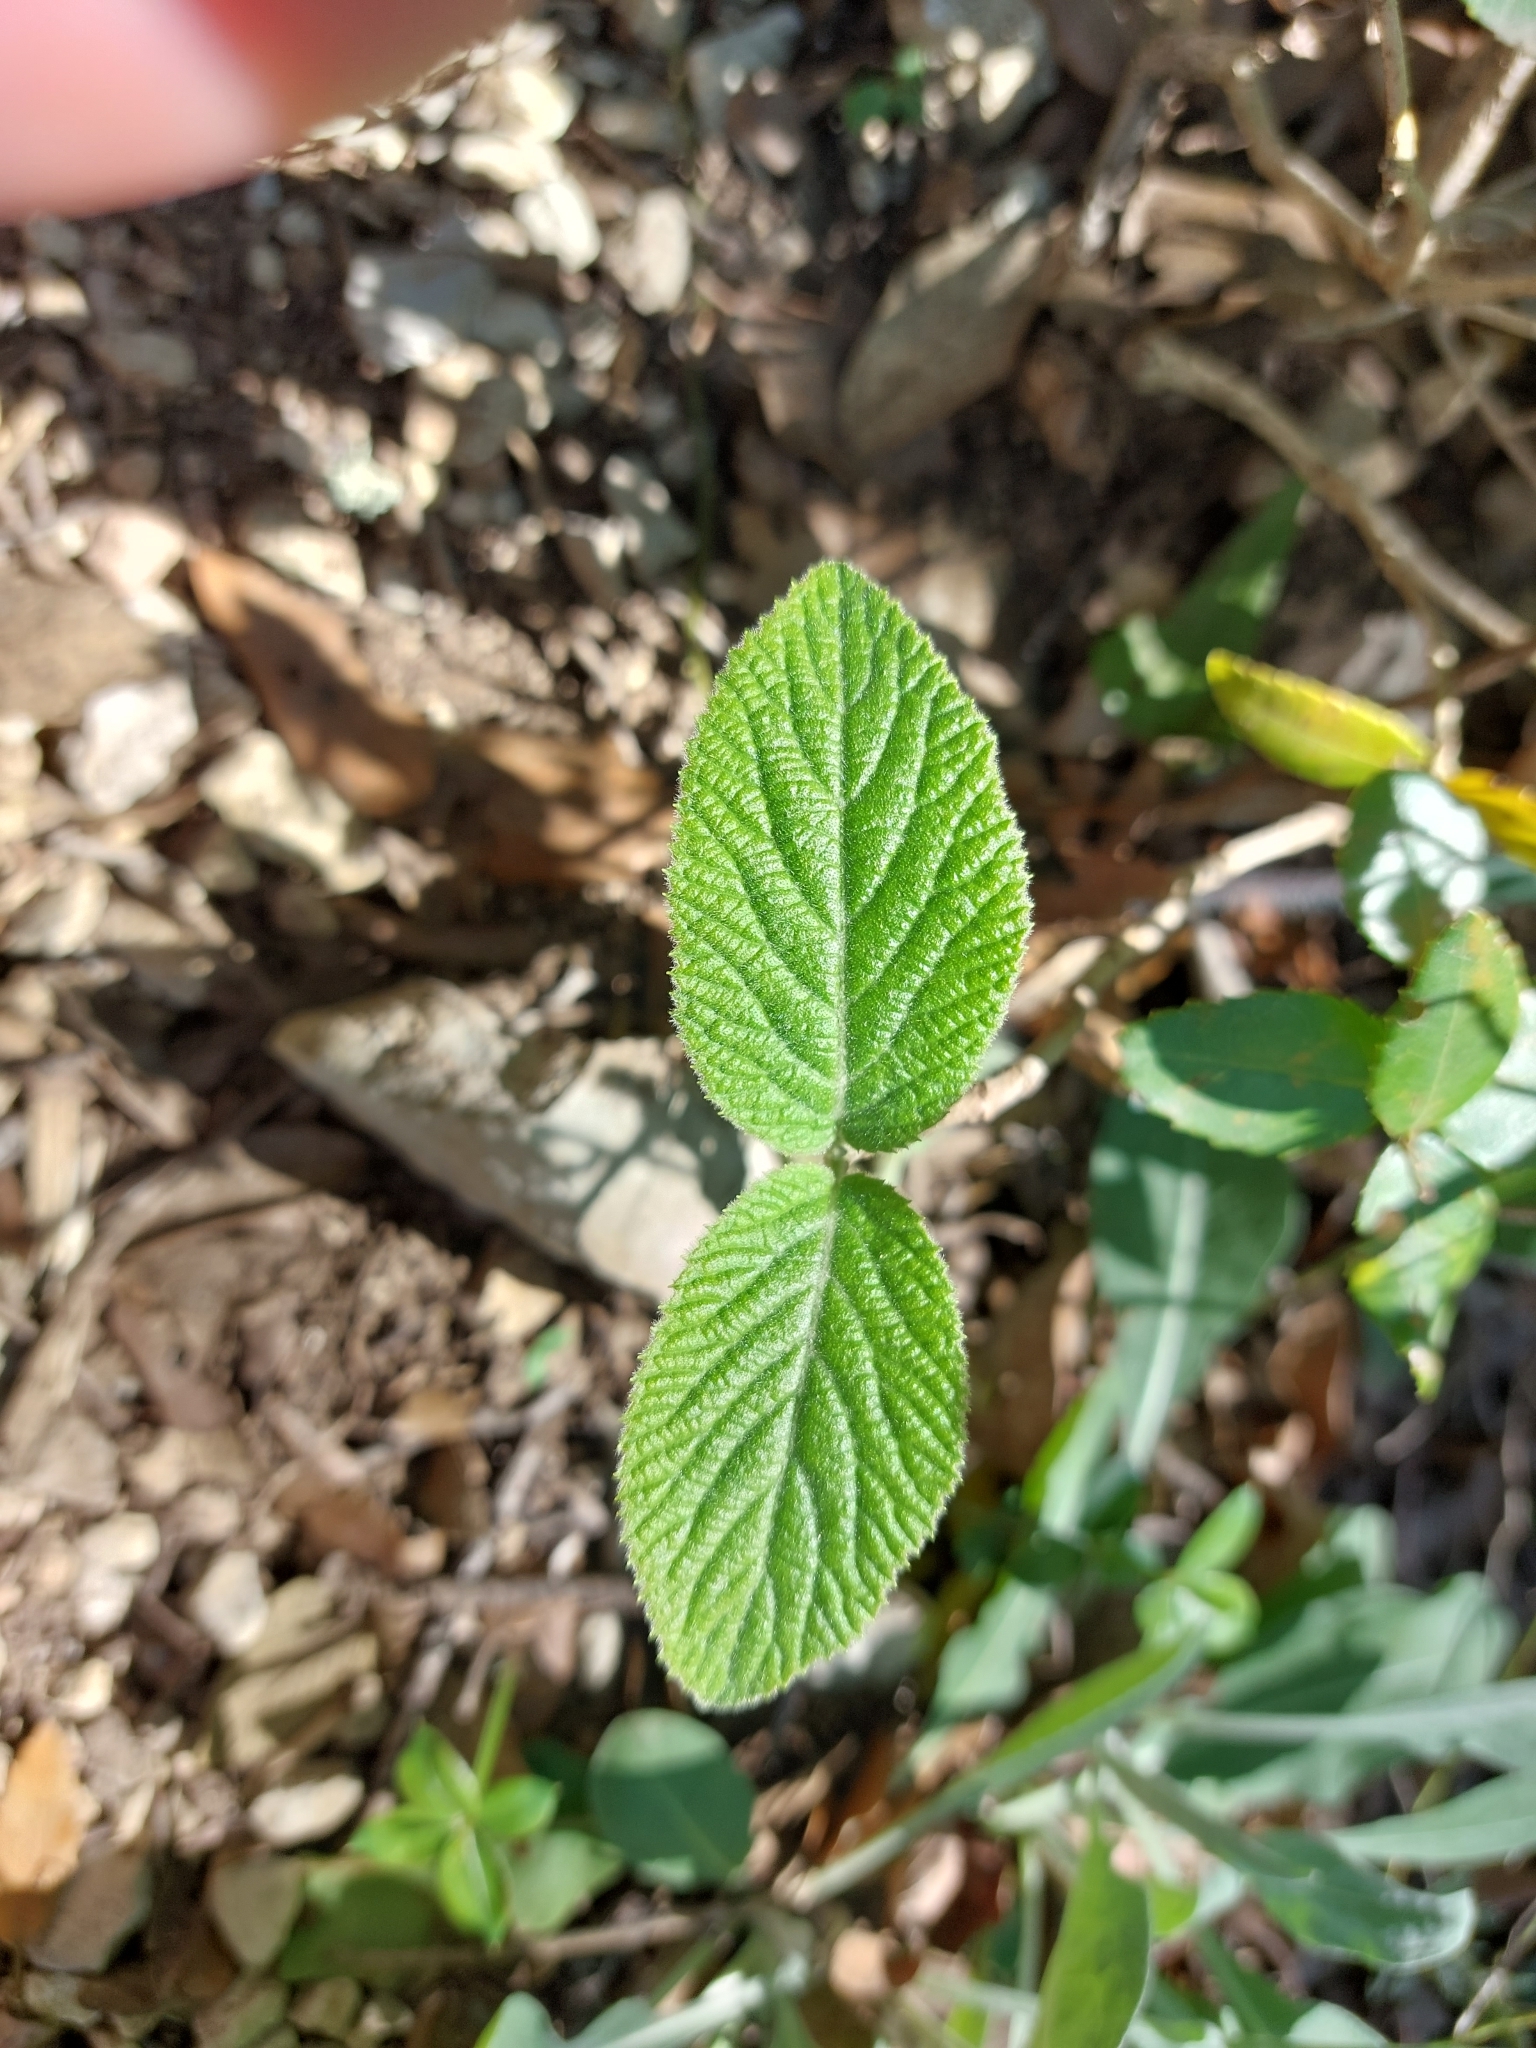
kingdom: Plantae
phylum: Tracheophyta
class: Magnoliopsida
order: Dipsacales
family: Viburnaceae
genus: Viburnum
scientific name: Viburnum lantana
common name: Wayfaring tree
